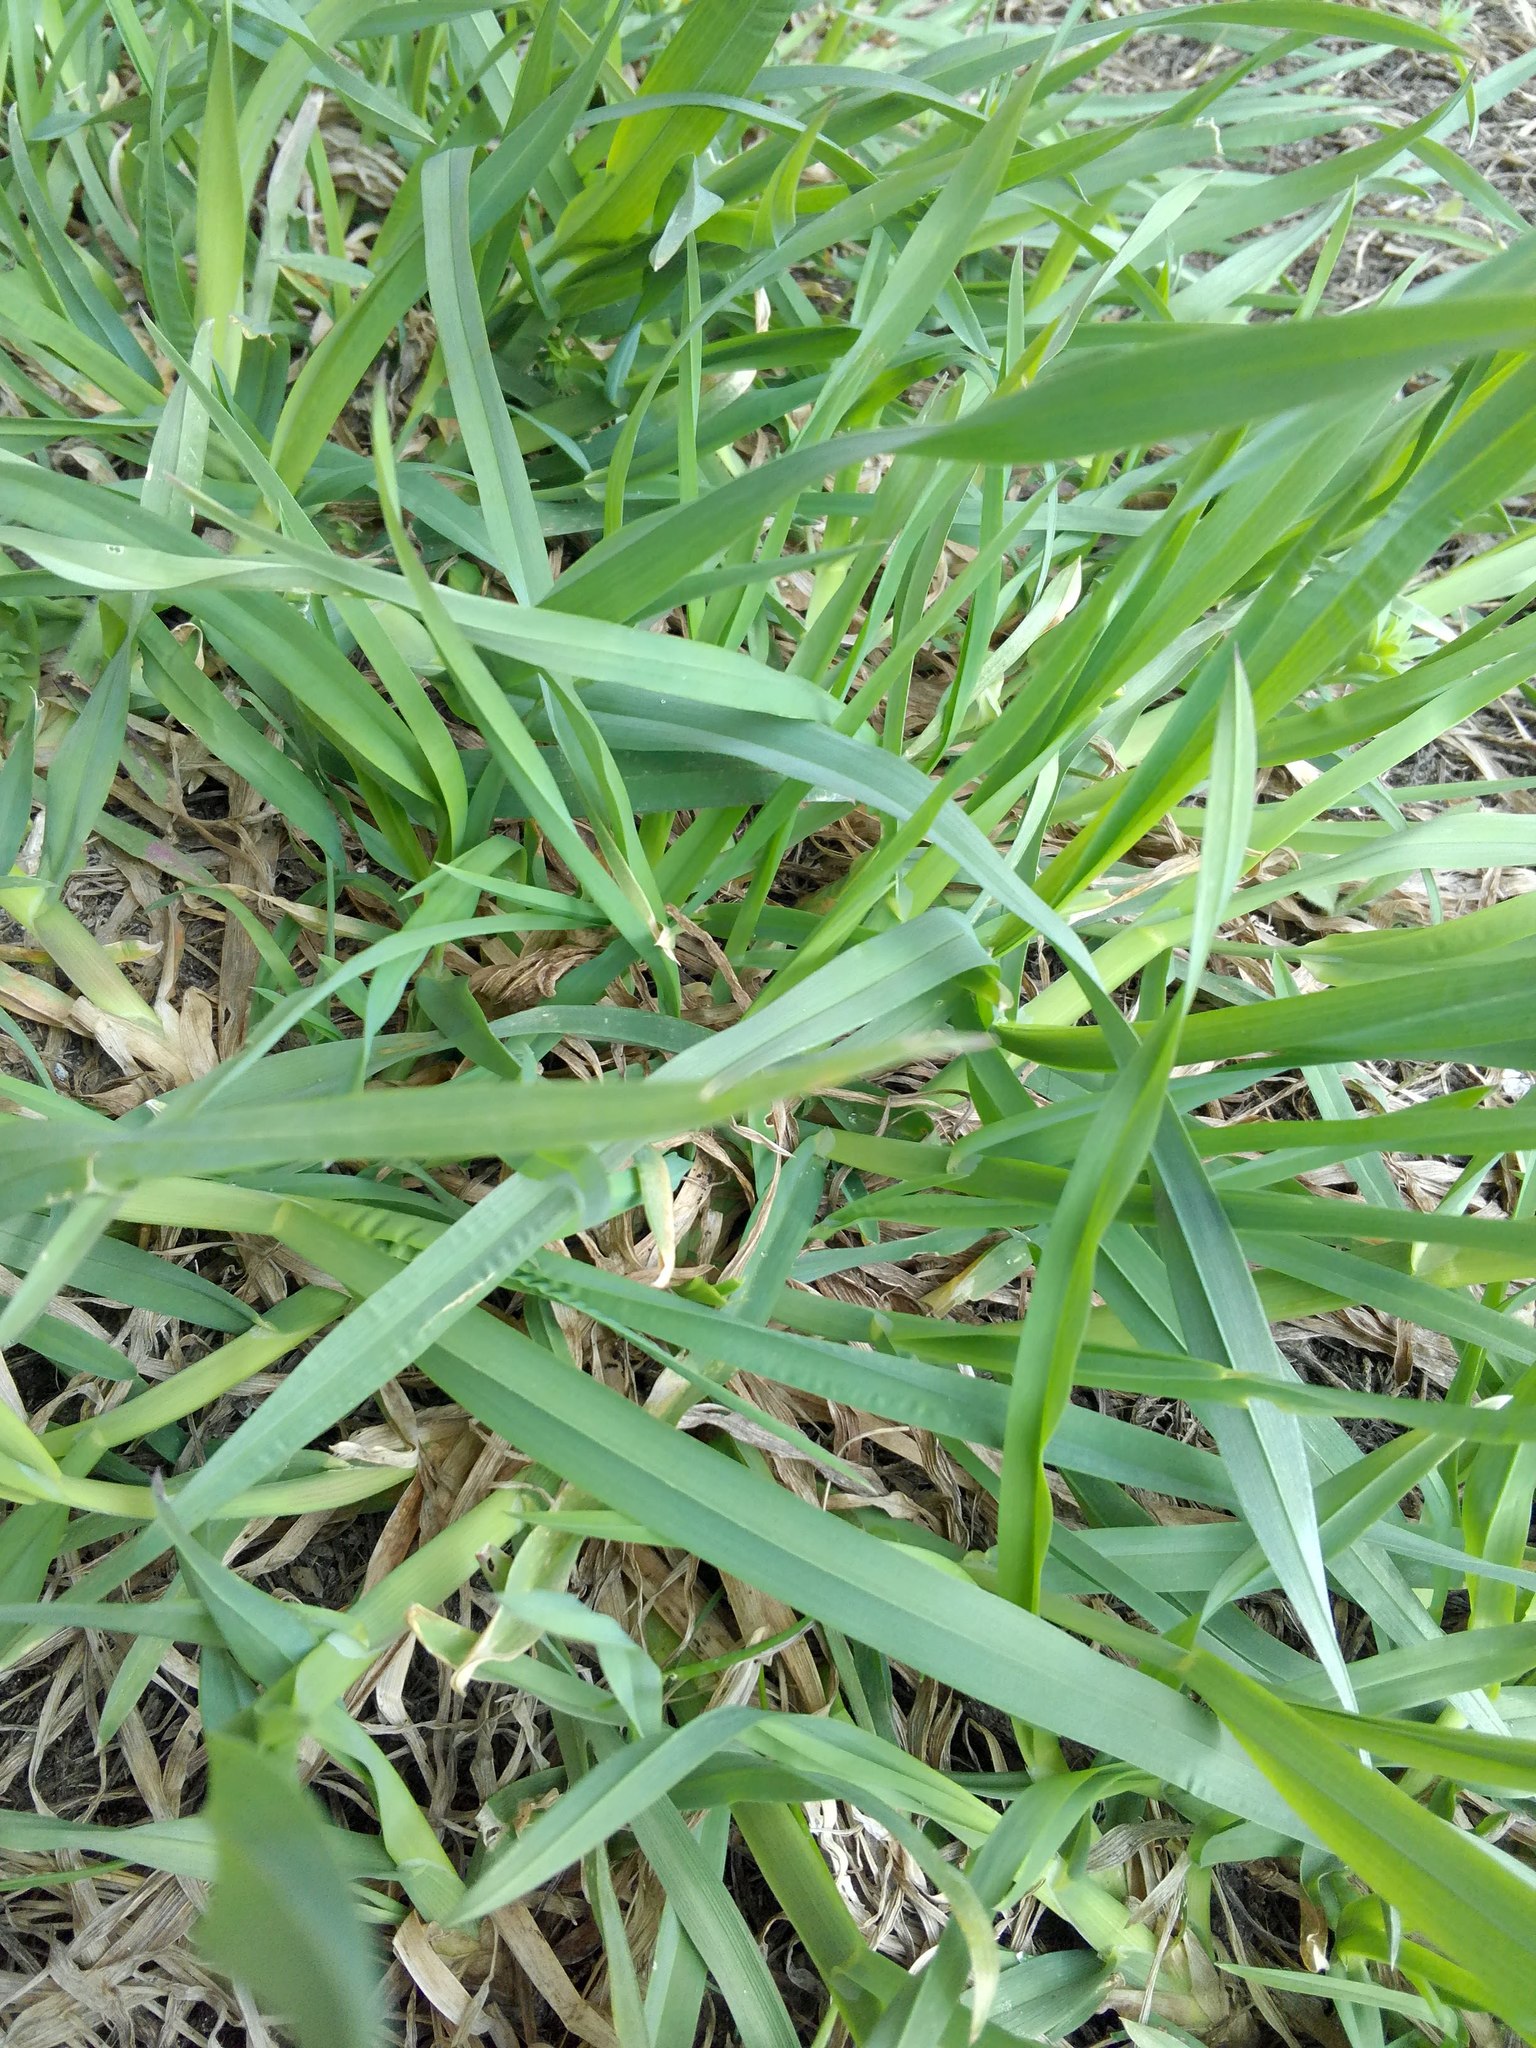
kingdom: Plantae
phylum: Tracheophyta
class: Liliopsida
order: Poales
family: Poaceae
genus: Dactylis
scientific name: Dactylis glomerata
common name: Orchardgrass
